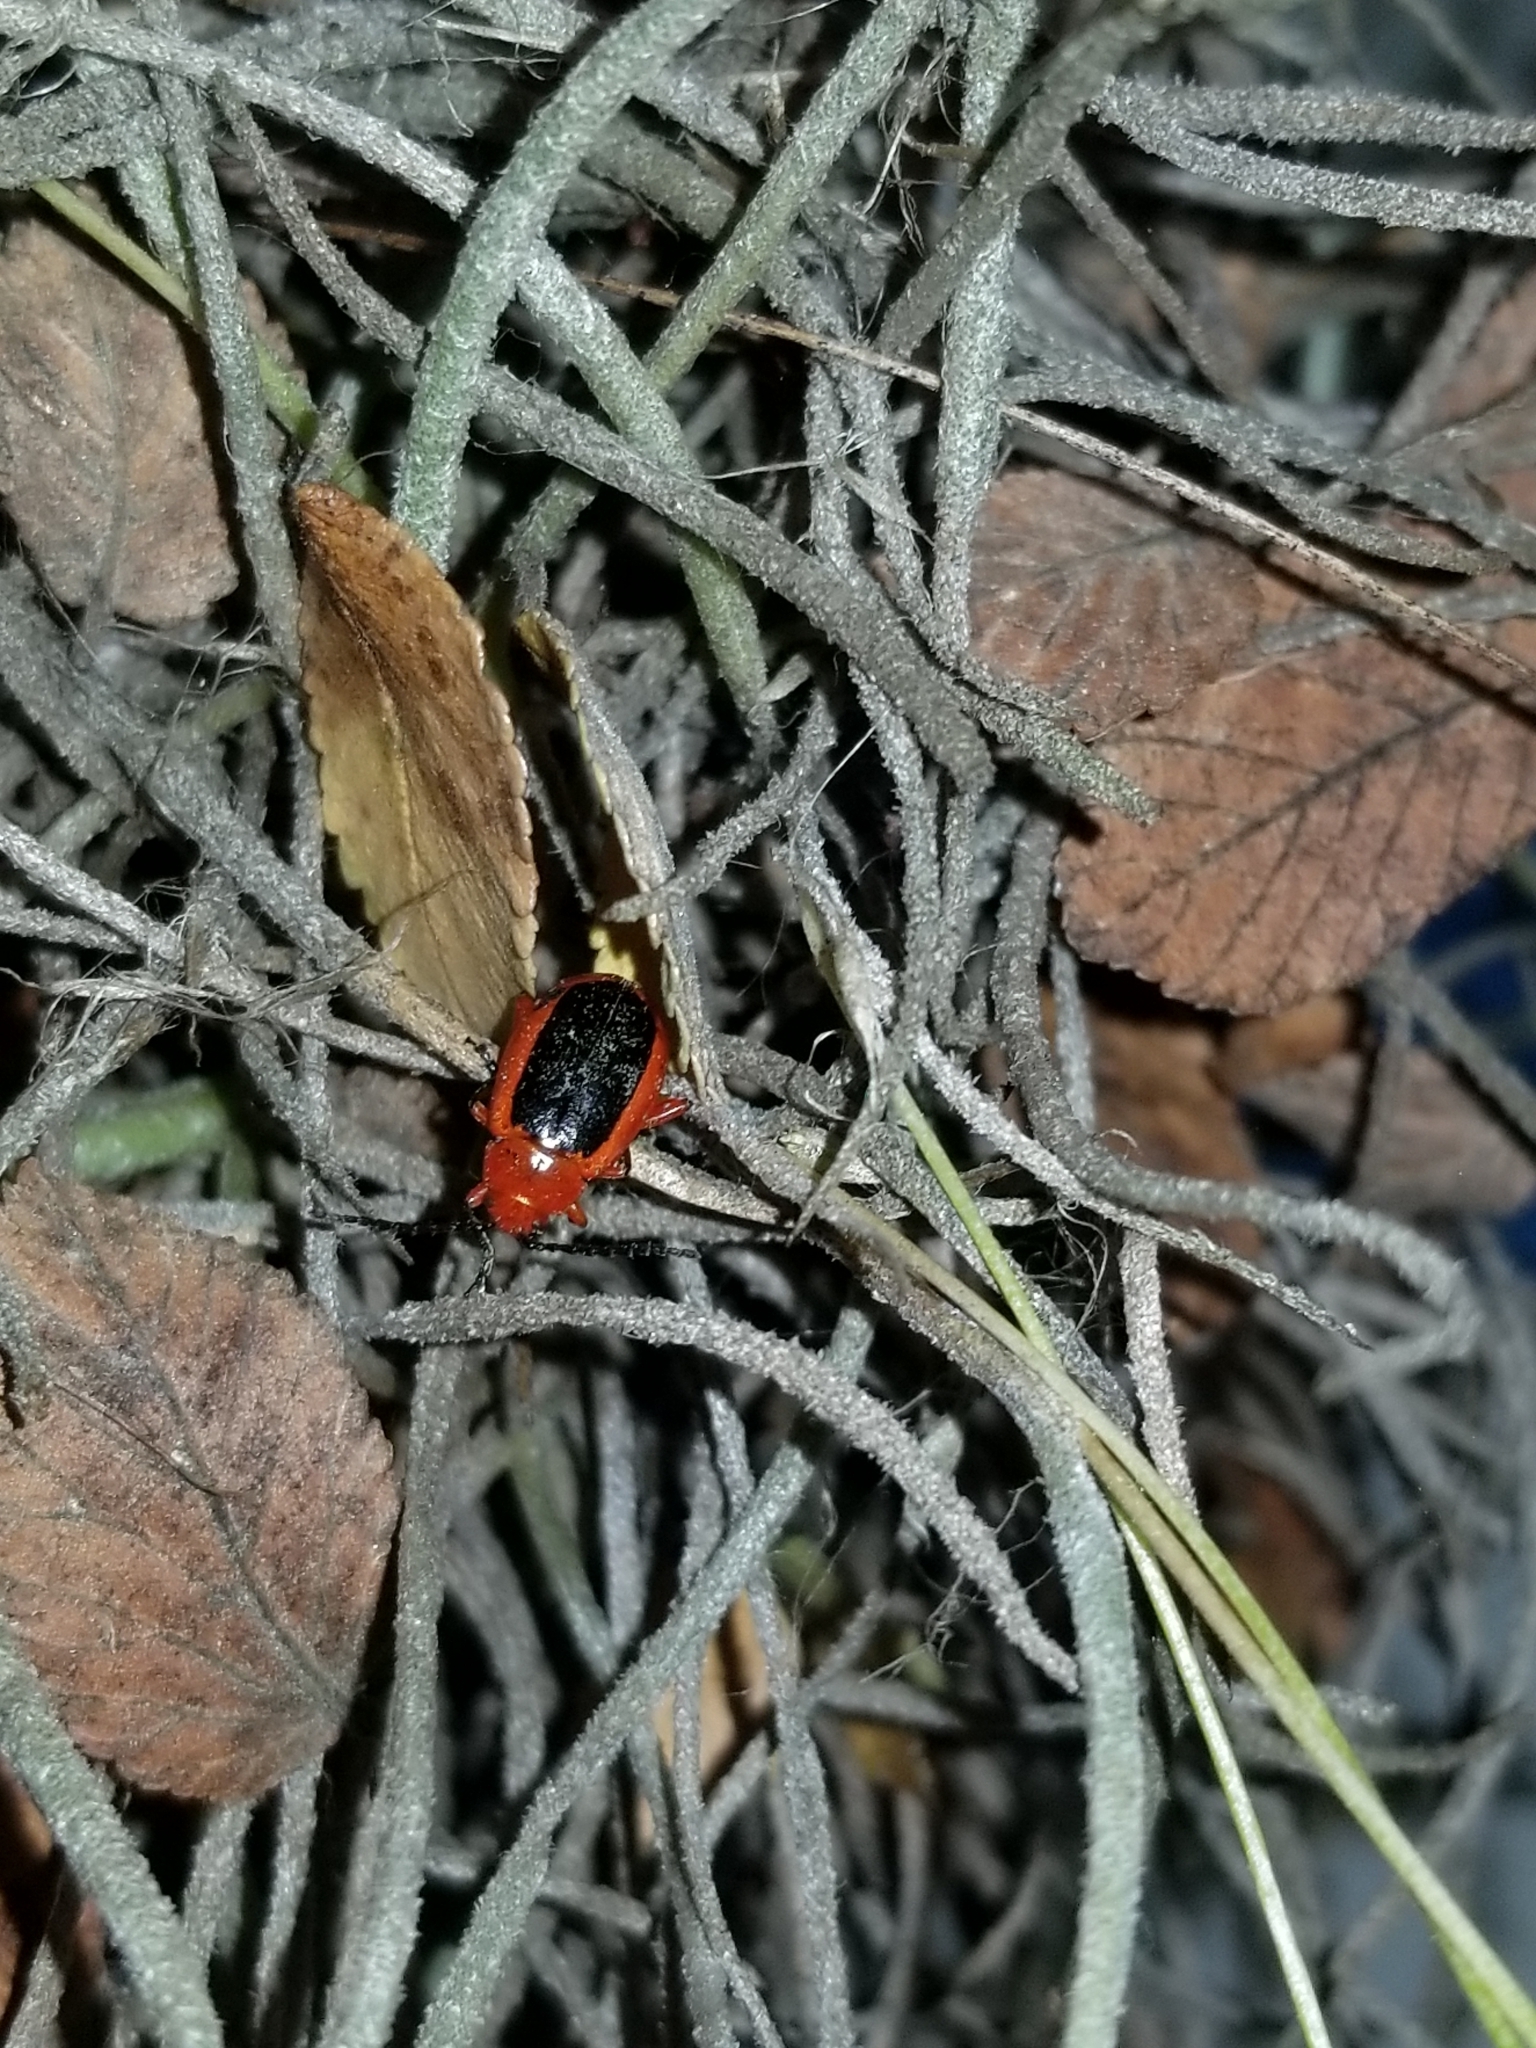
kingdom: Animalia
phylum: Arthropoda
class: Insecta
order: Coleoptera
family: Chrysomelidae
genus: Disonycha
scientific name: Disonycha discoidea
